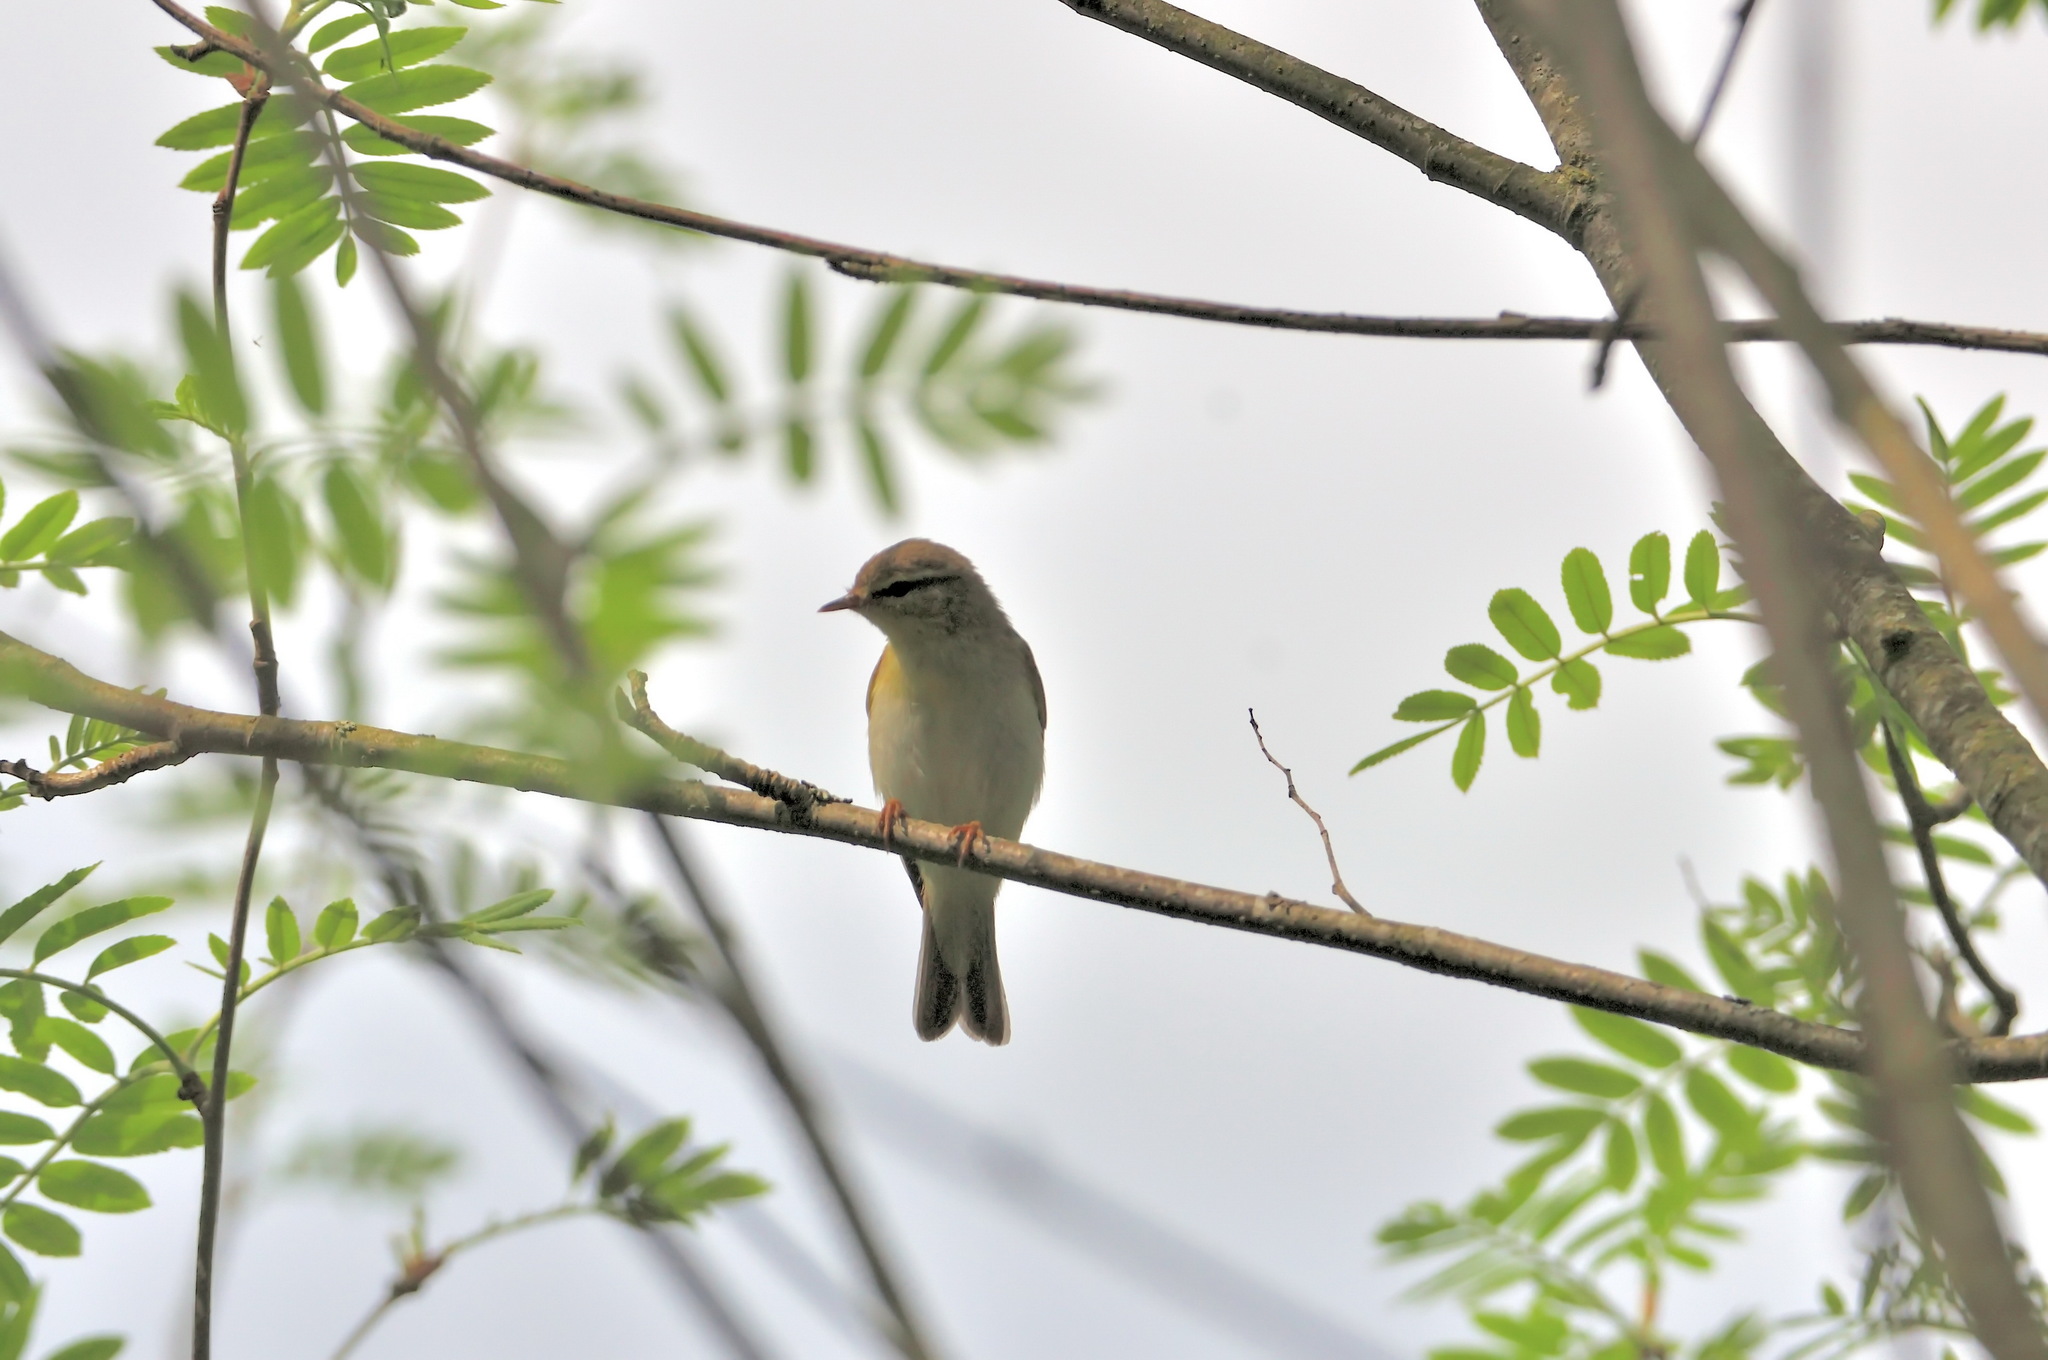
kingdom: Animalia
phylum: Chordata
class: Aves
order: Passeriformes
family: Phylloscopidae
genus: Phylloscopus
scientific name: Phylloscopus trochilus
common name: Willow warbler
